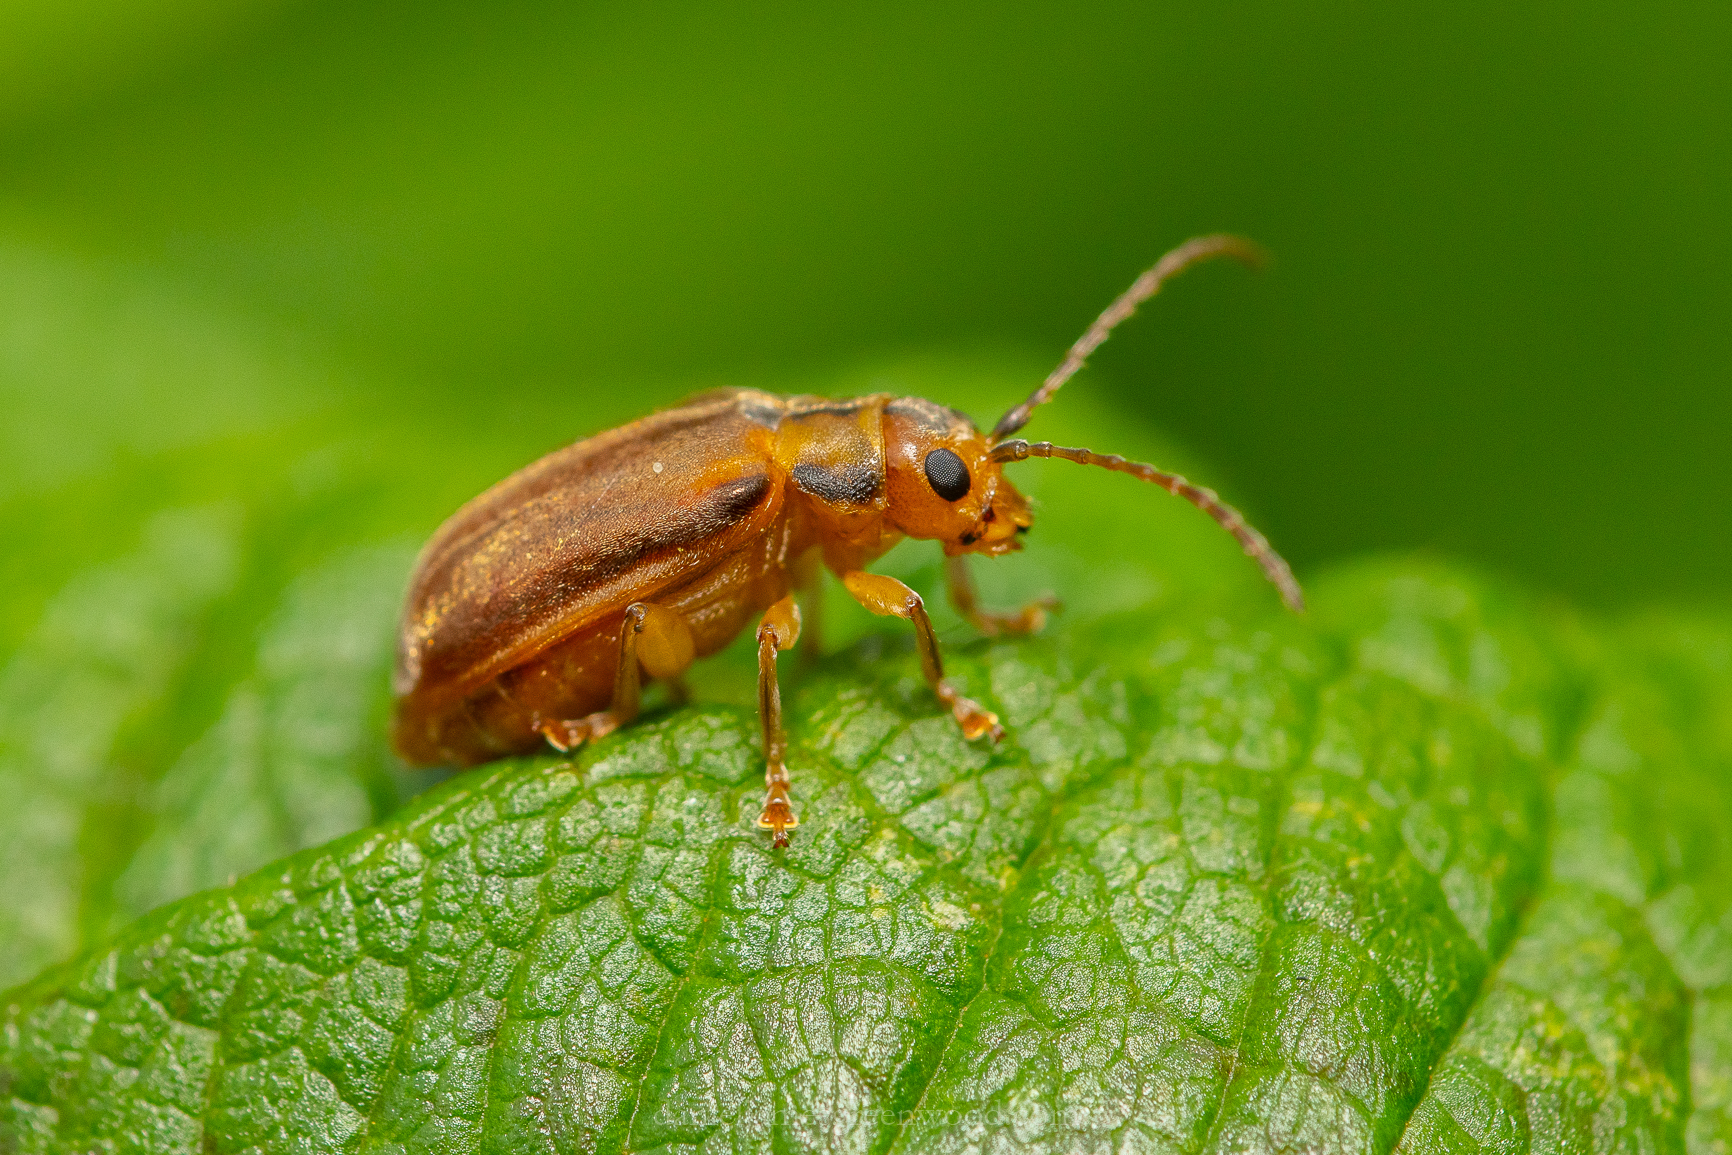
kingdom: Animalia
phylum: Arthropoda
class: Insecta
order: Coleoptera
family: Chrysomelidae
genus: Pyrrhalta
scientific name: Pyrrhalta viburni
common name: Guelder-rose leaf beetle
